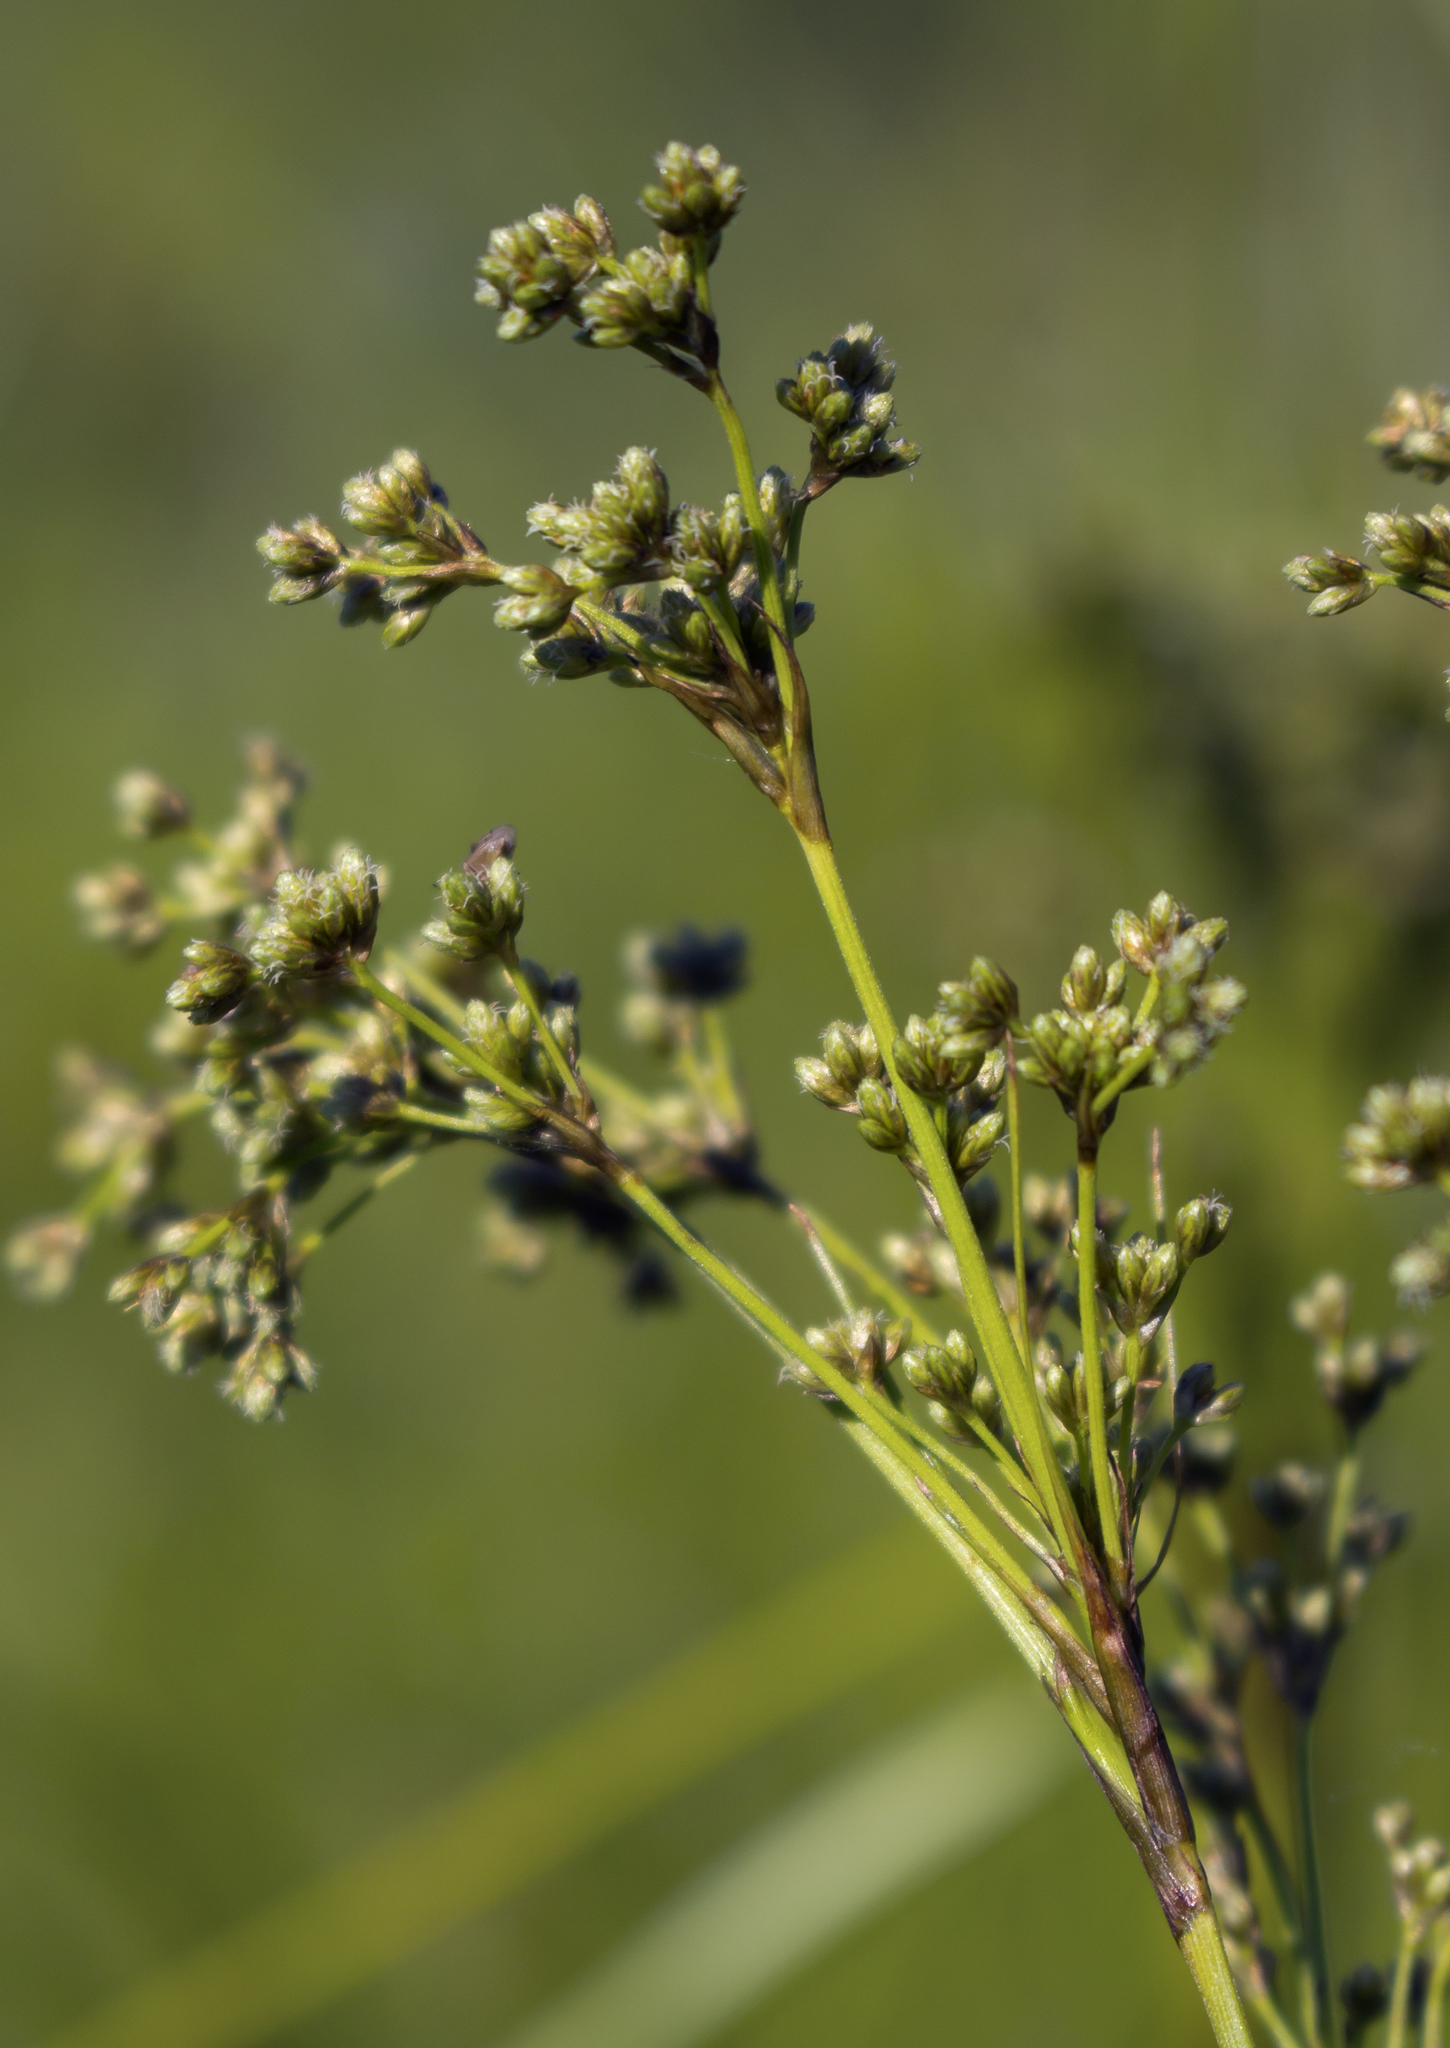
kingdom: Plantae
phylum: Tracheophyta
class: Liliopsida
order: Poales
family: Cyperaceae
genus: Scirpus
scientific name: Scirpus cyperinus
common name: Black-sheathed bulrush
